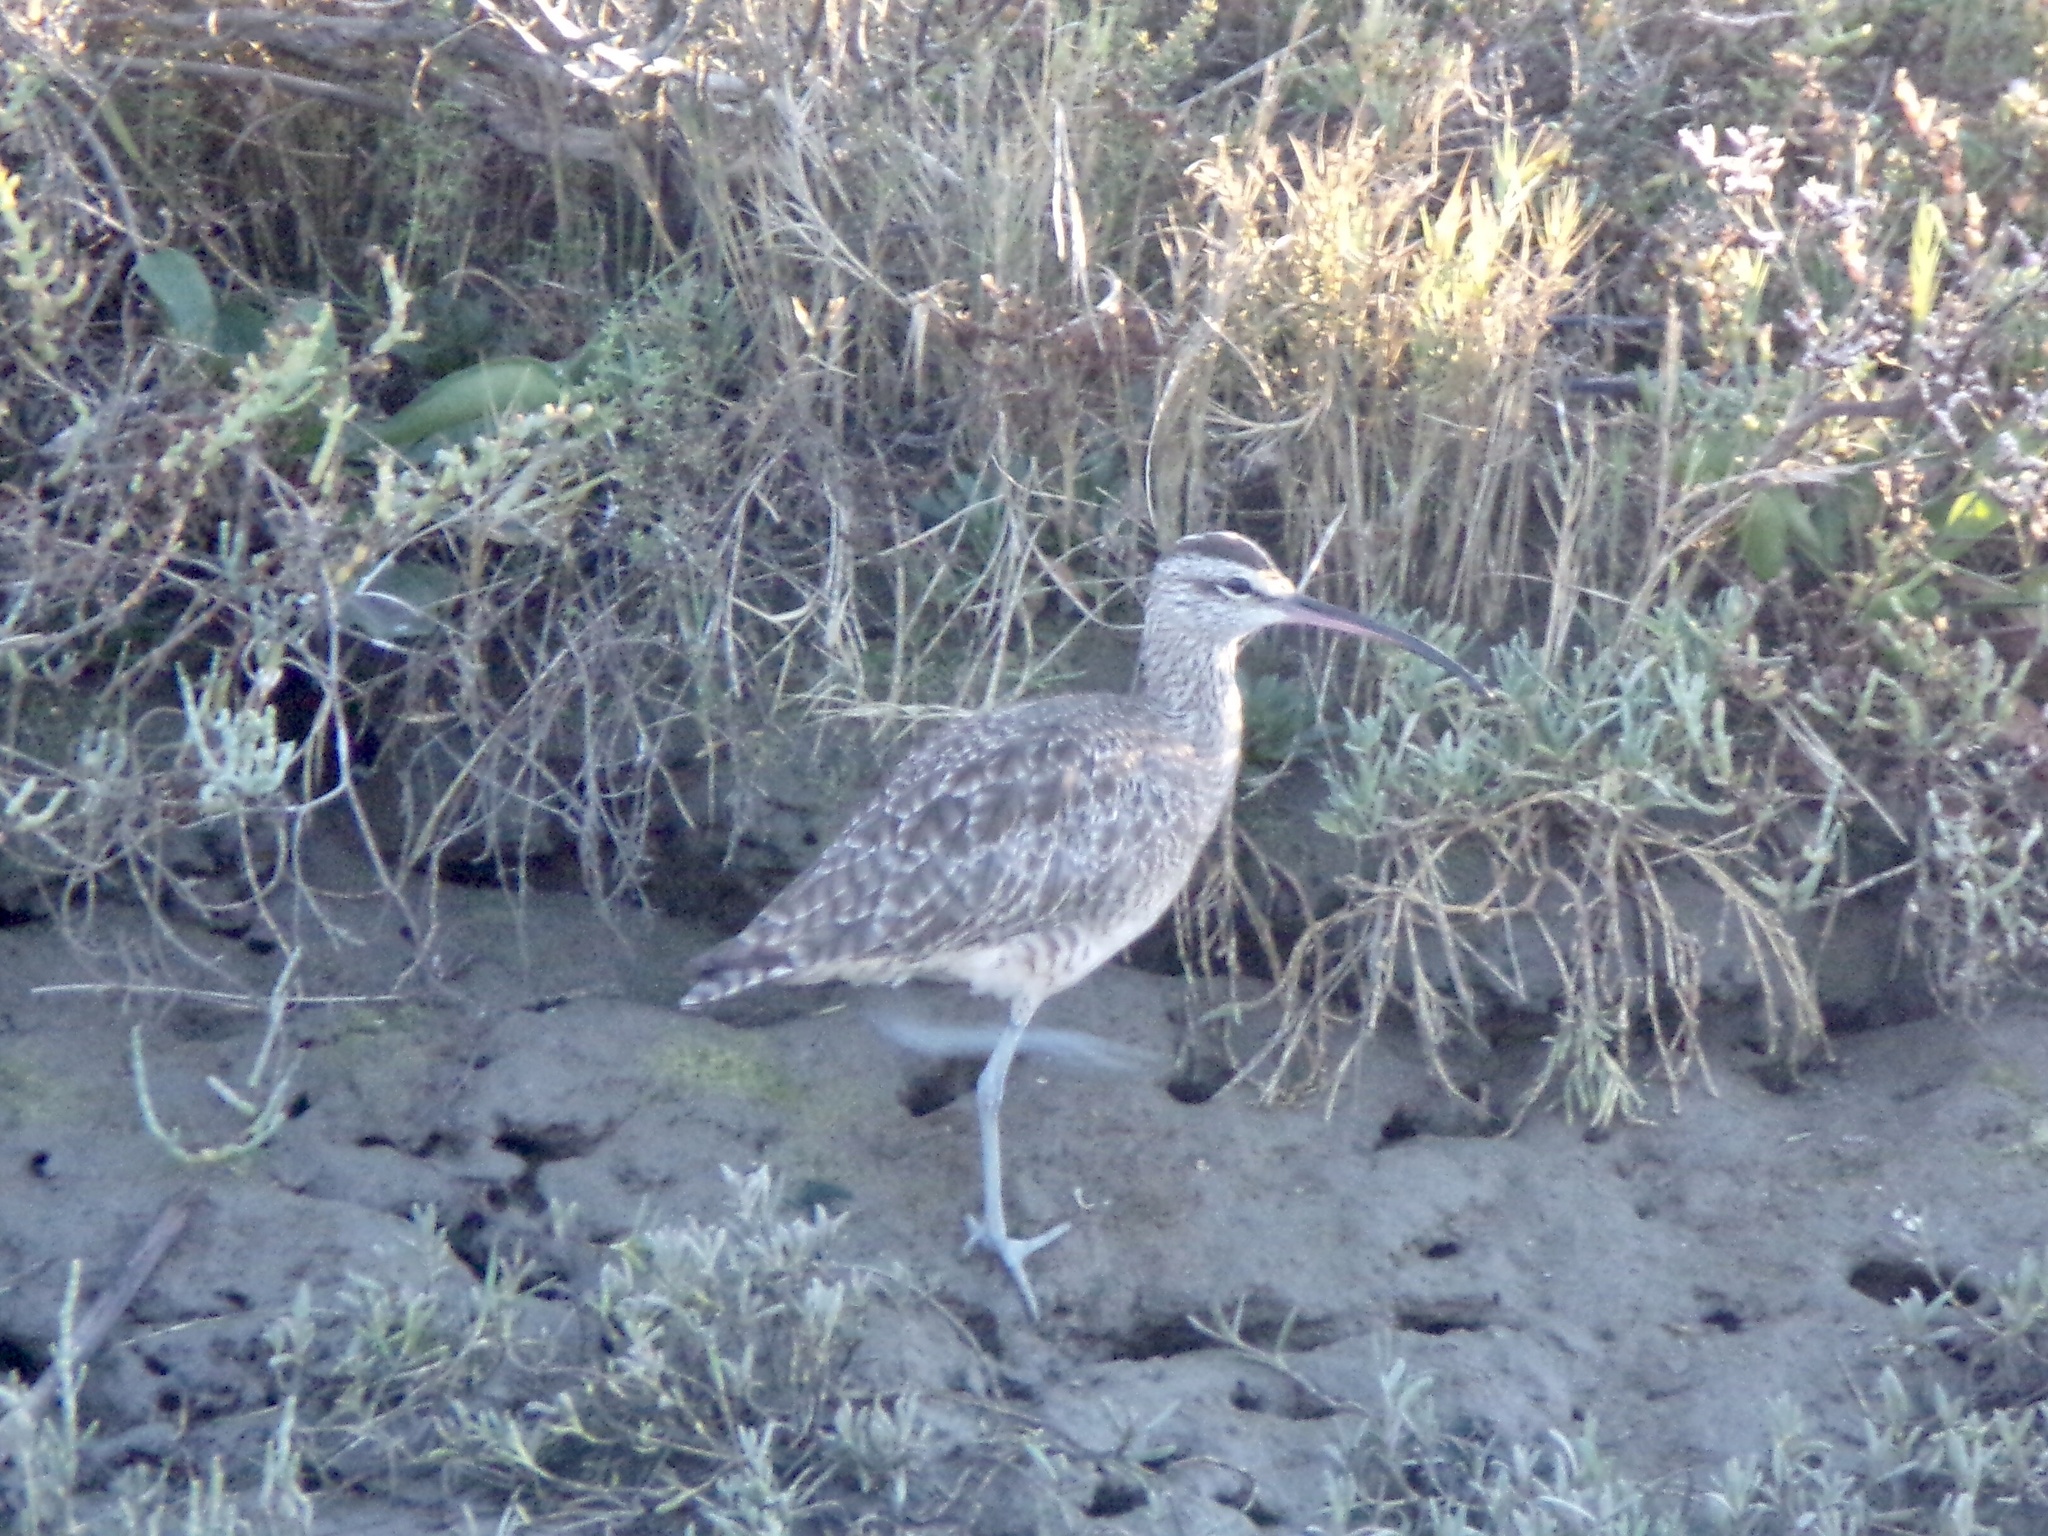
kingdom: Animalia
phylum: Chordata
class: Aves
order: Charadriiformes
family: Scolopacidae
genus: Numenius
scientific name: Numenius phaeopus
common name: Whimbrel
